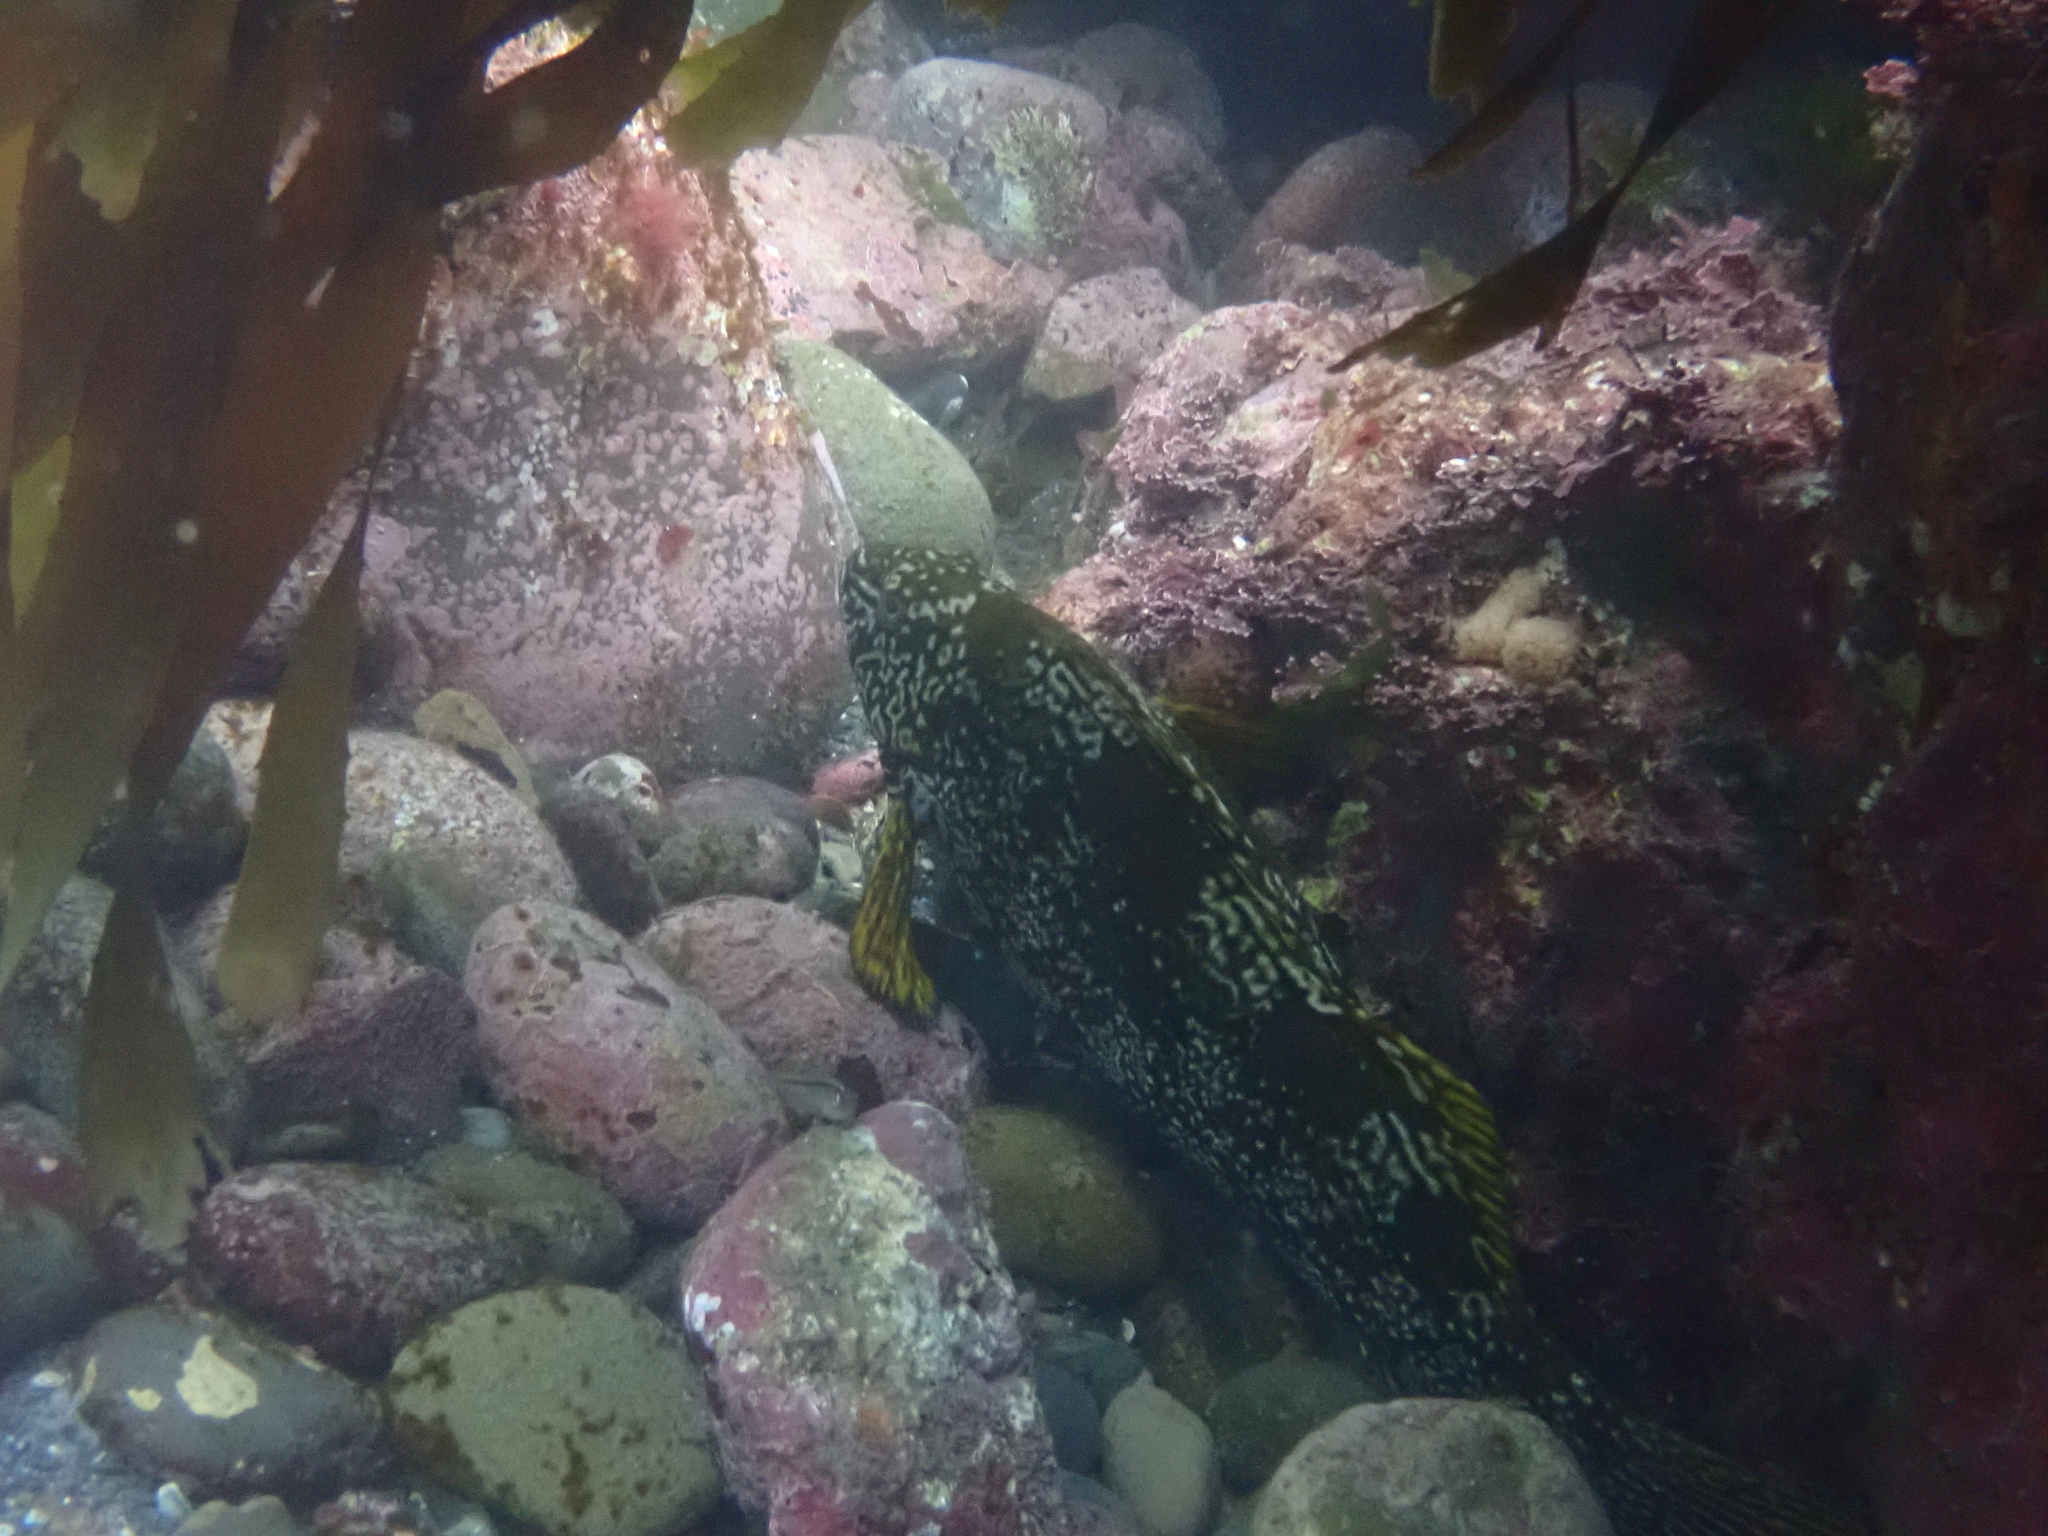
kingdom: Animalia
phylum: Chordata
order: Perciformes
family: Aplodactylidae
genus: Aplodactylus
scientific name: Aplodactylus arctidens
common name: Marblefish
